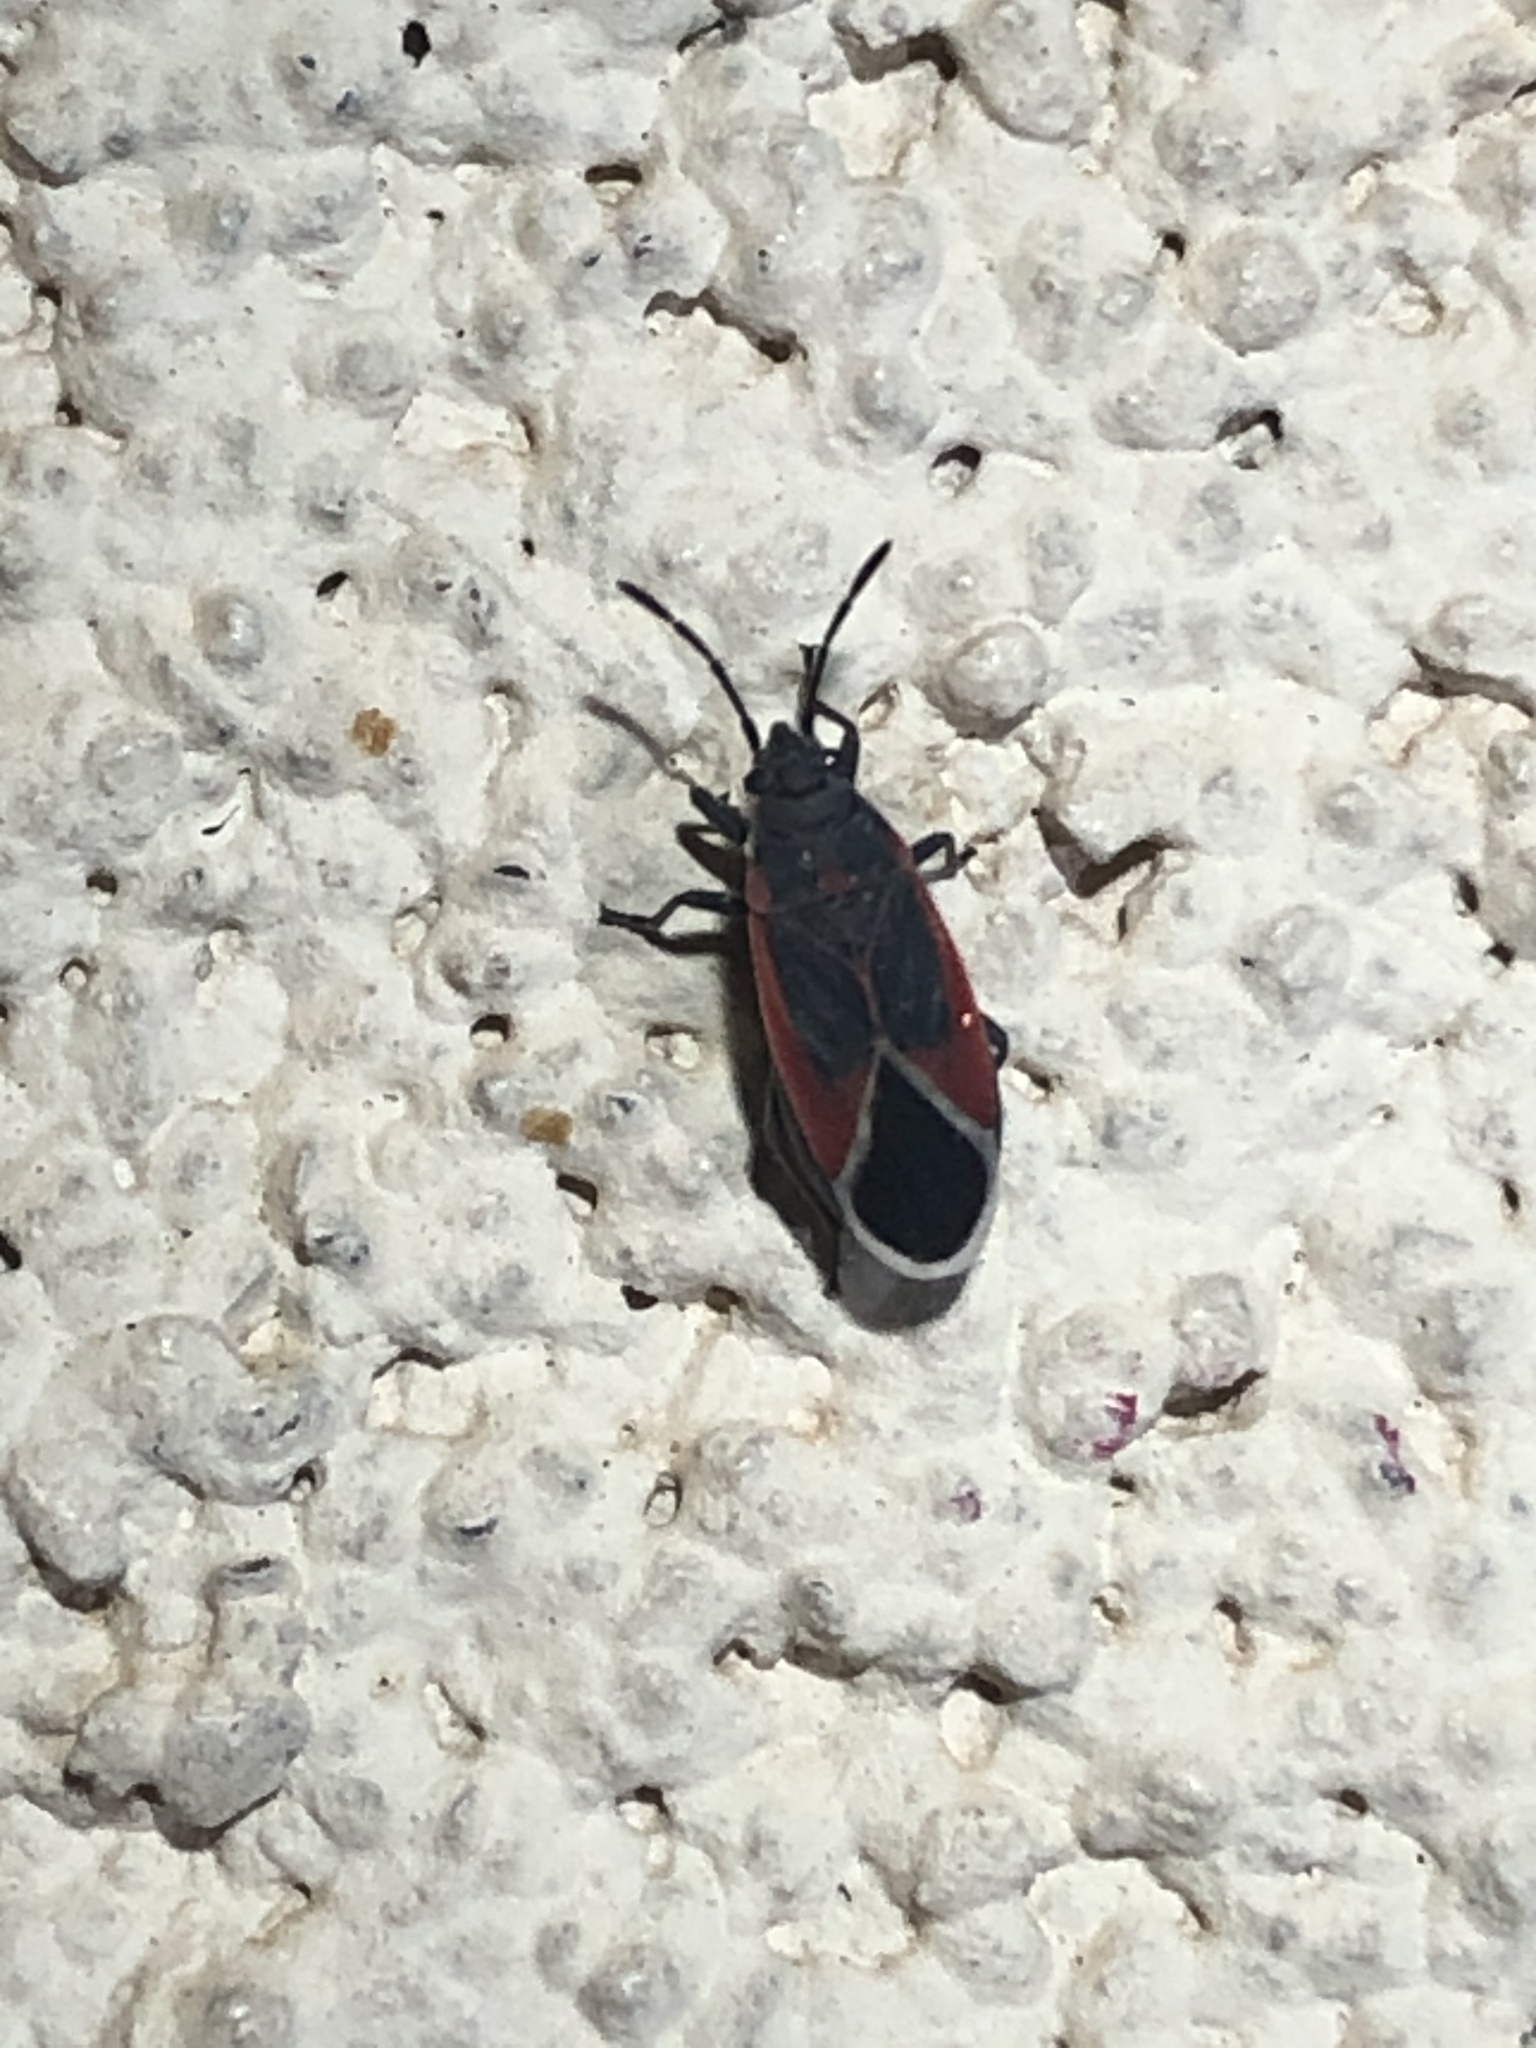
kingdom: Animalia
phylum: Arthropoda
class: Insecta
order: Hemiptera
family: Lygaeidae
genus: Melacoryphus
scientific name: Melacoryphus admirabilis
